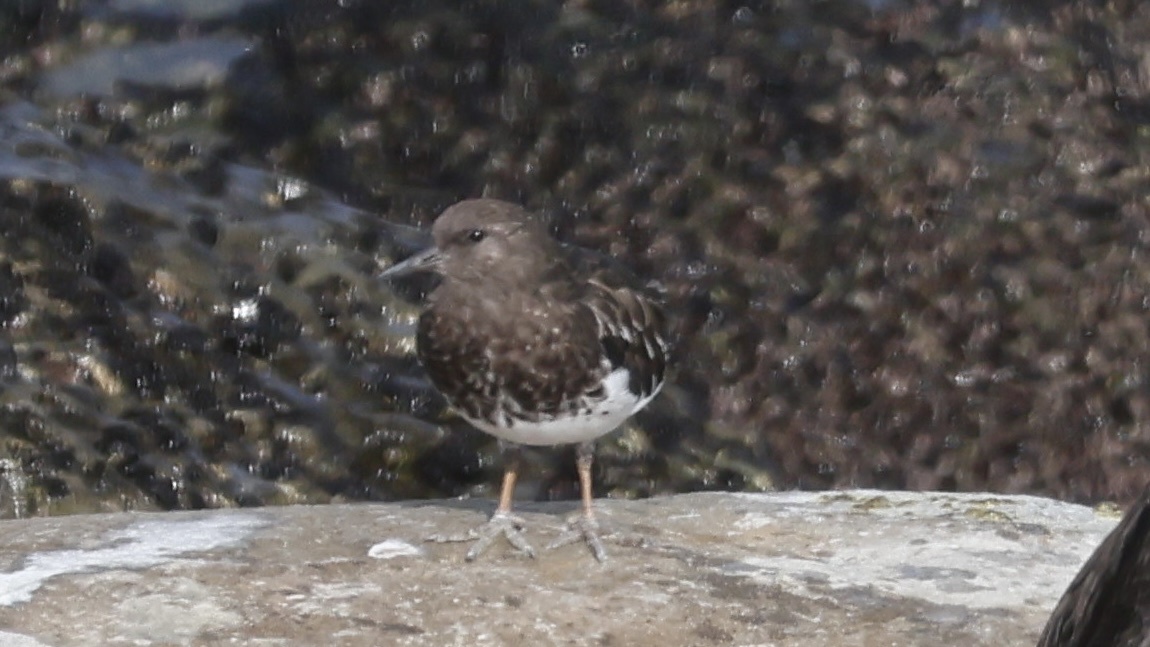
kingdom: Animalia
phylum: Chordata
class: Aves
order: Charadriiformes
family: Scolopacidae
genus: Arenaria
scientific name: Arenaria melanocephala
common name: Black turnstone
